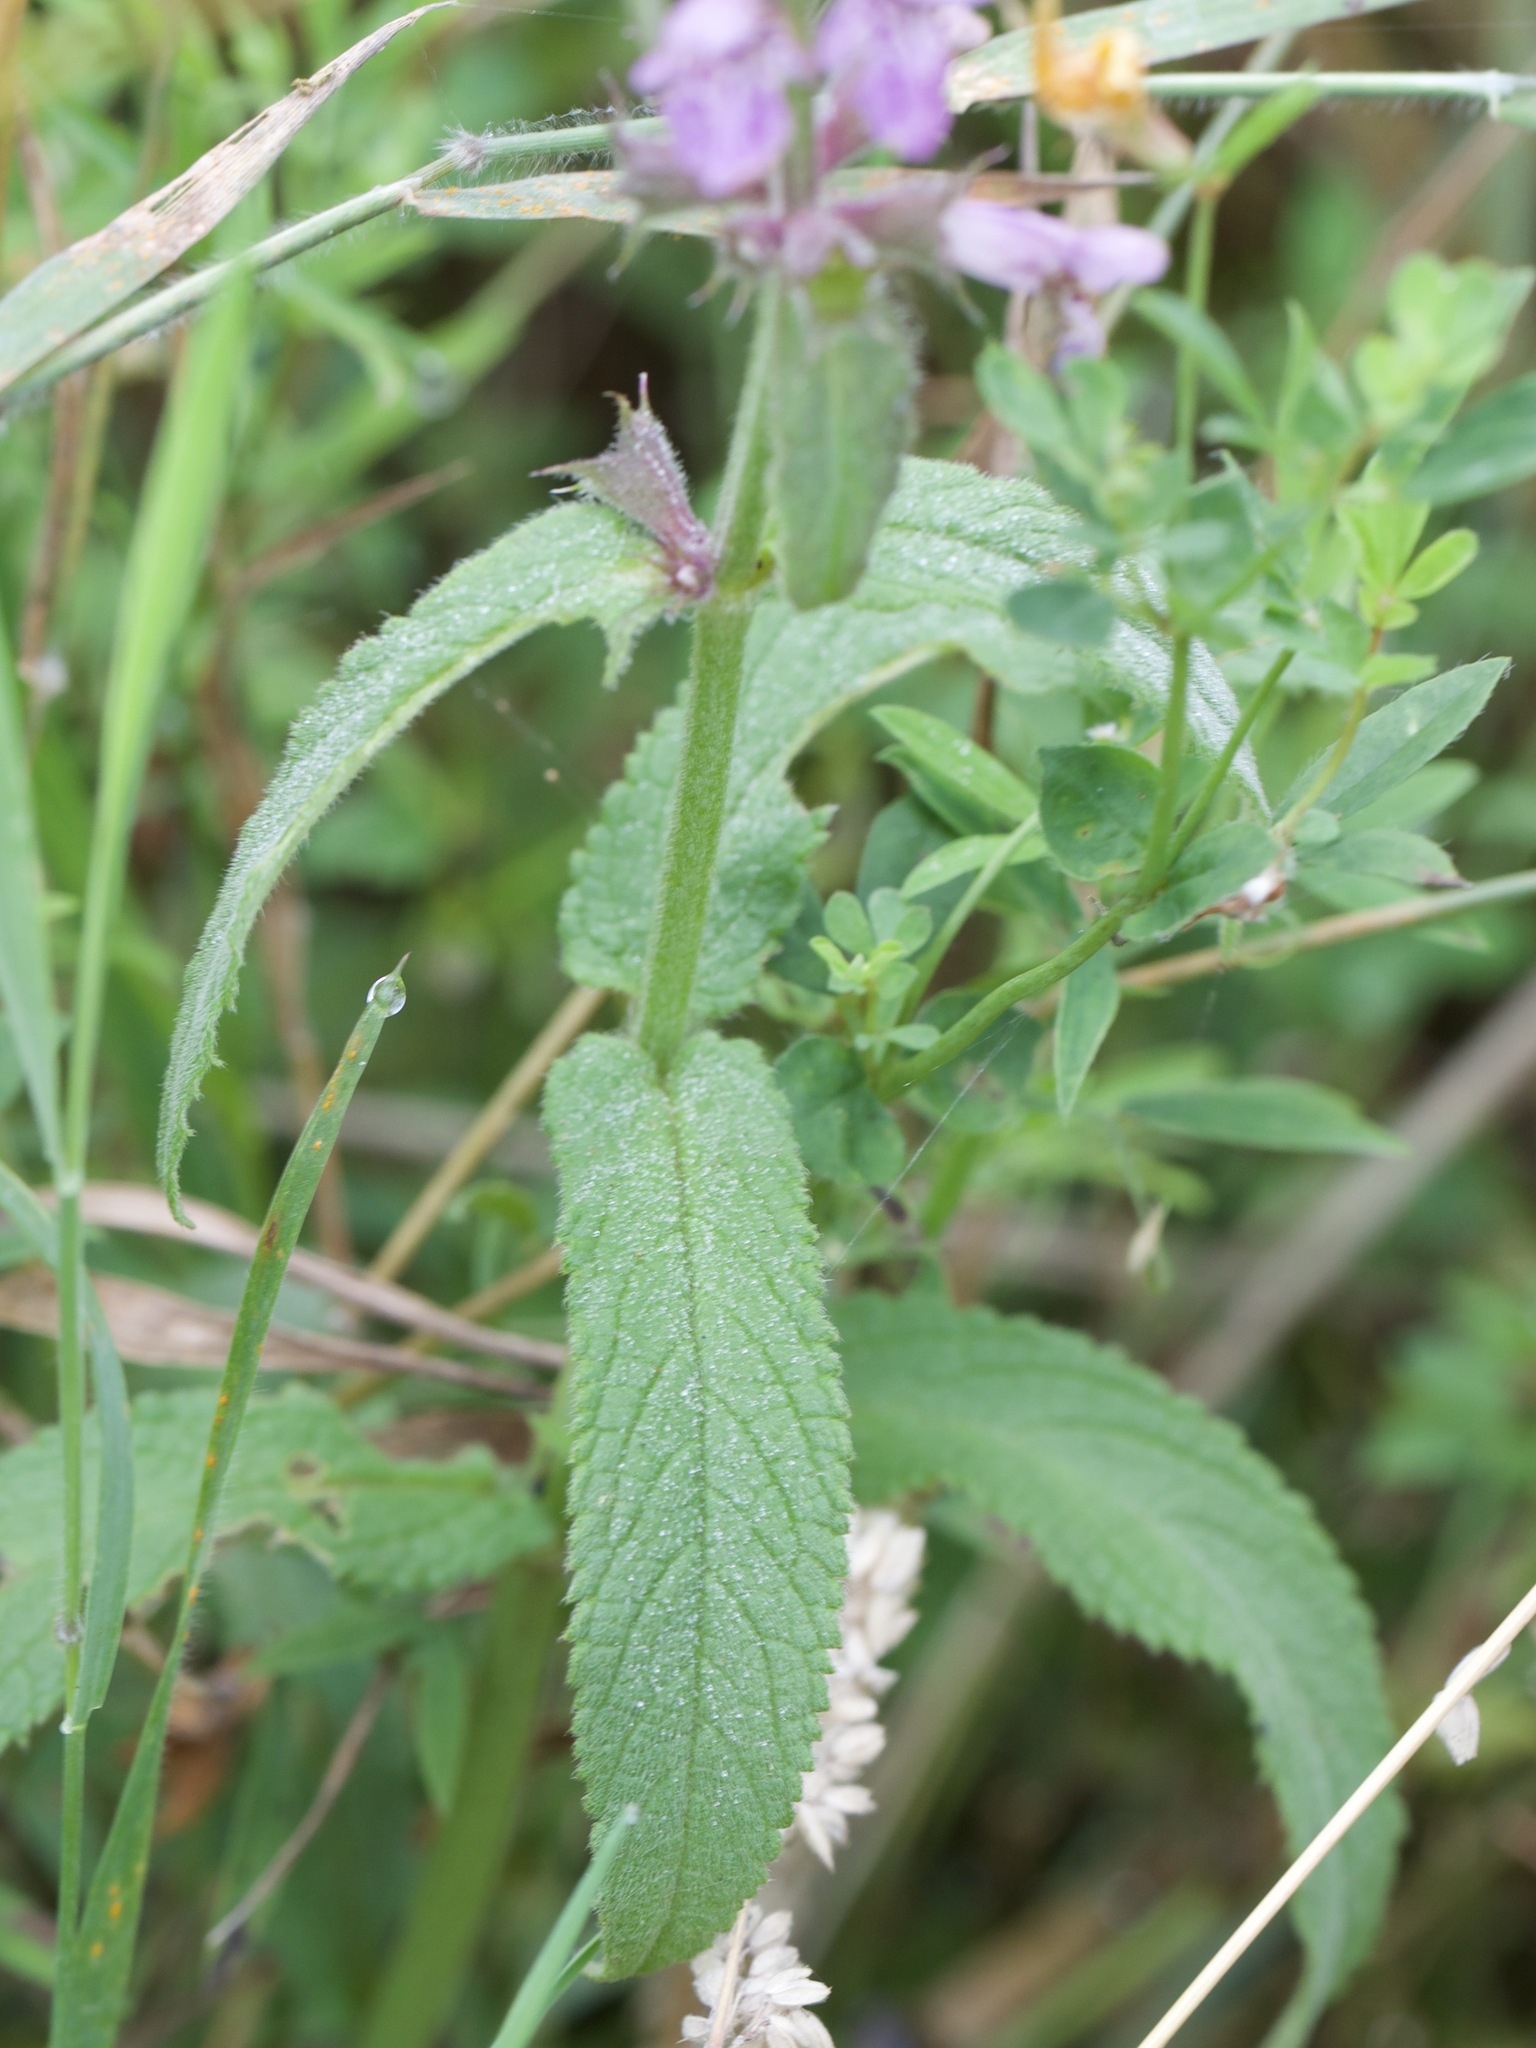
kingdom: Plantae
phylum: Tracheophyta
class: Magnoliopsida
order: Lamiales
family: Lamiaceae
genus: Stachys
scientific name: Stachys palustris
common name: Marsh woundwort
